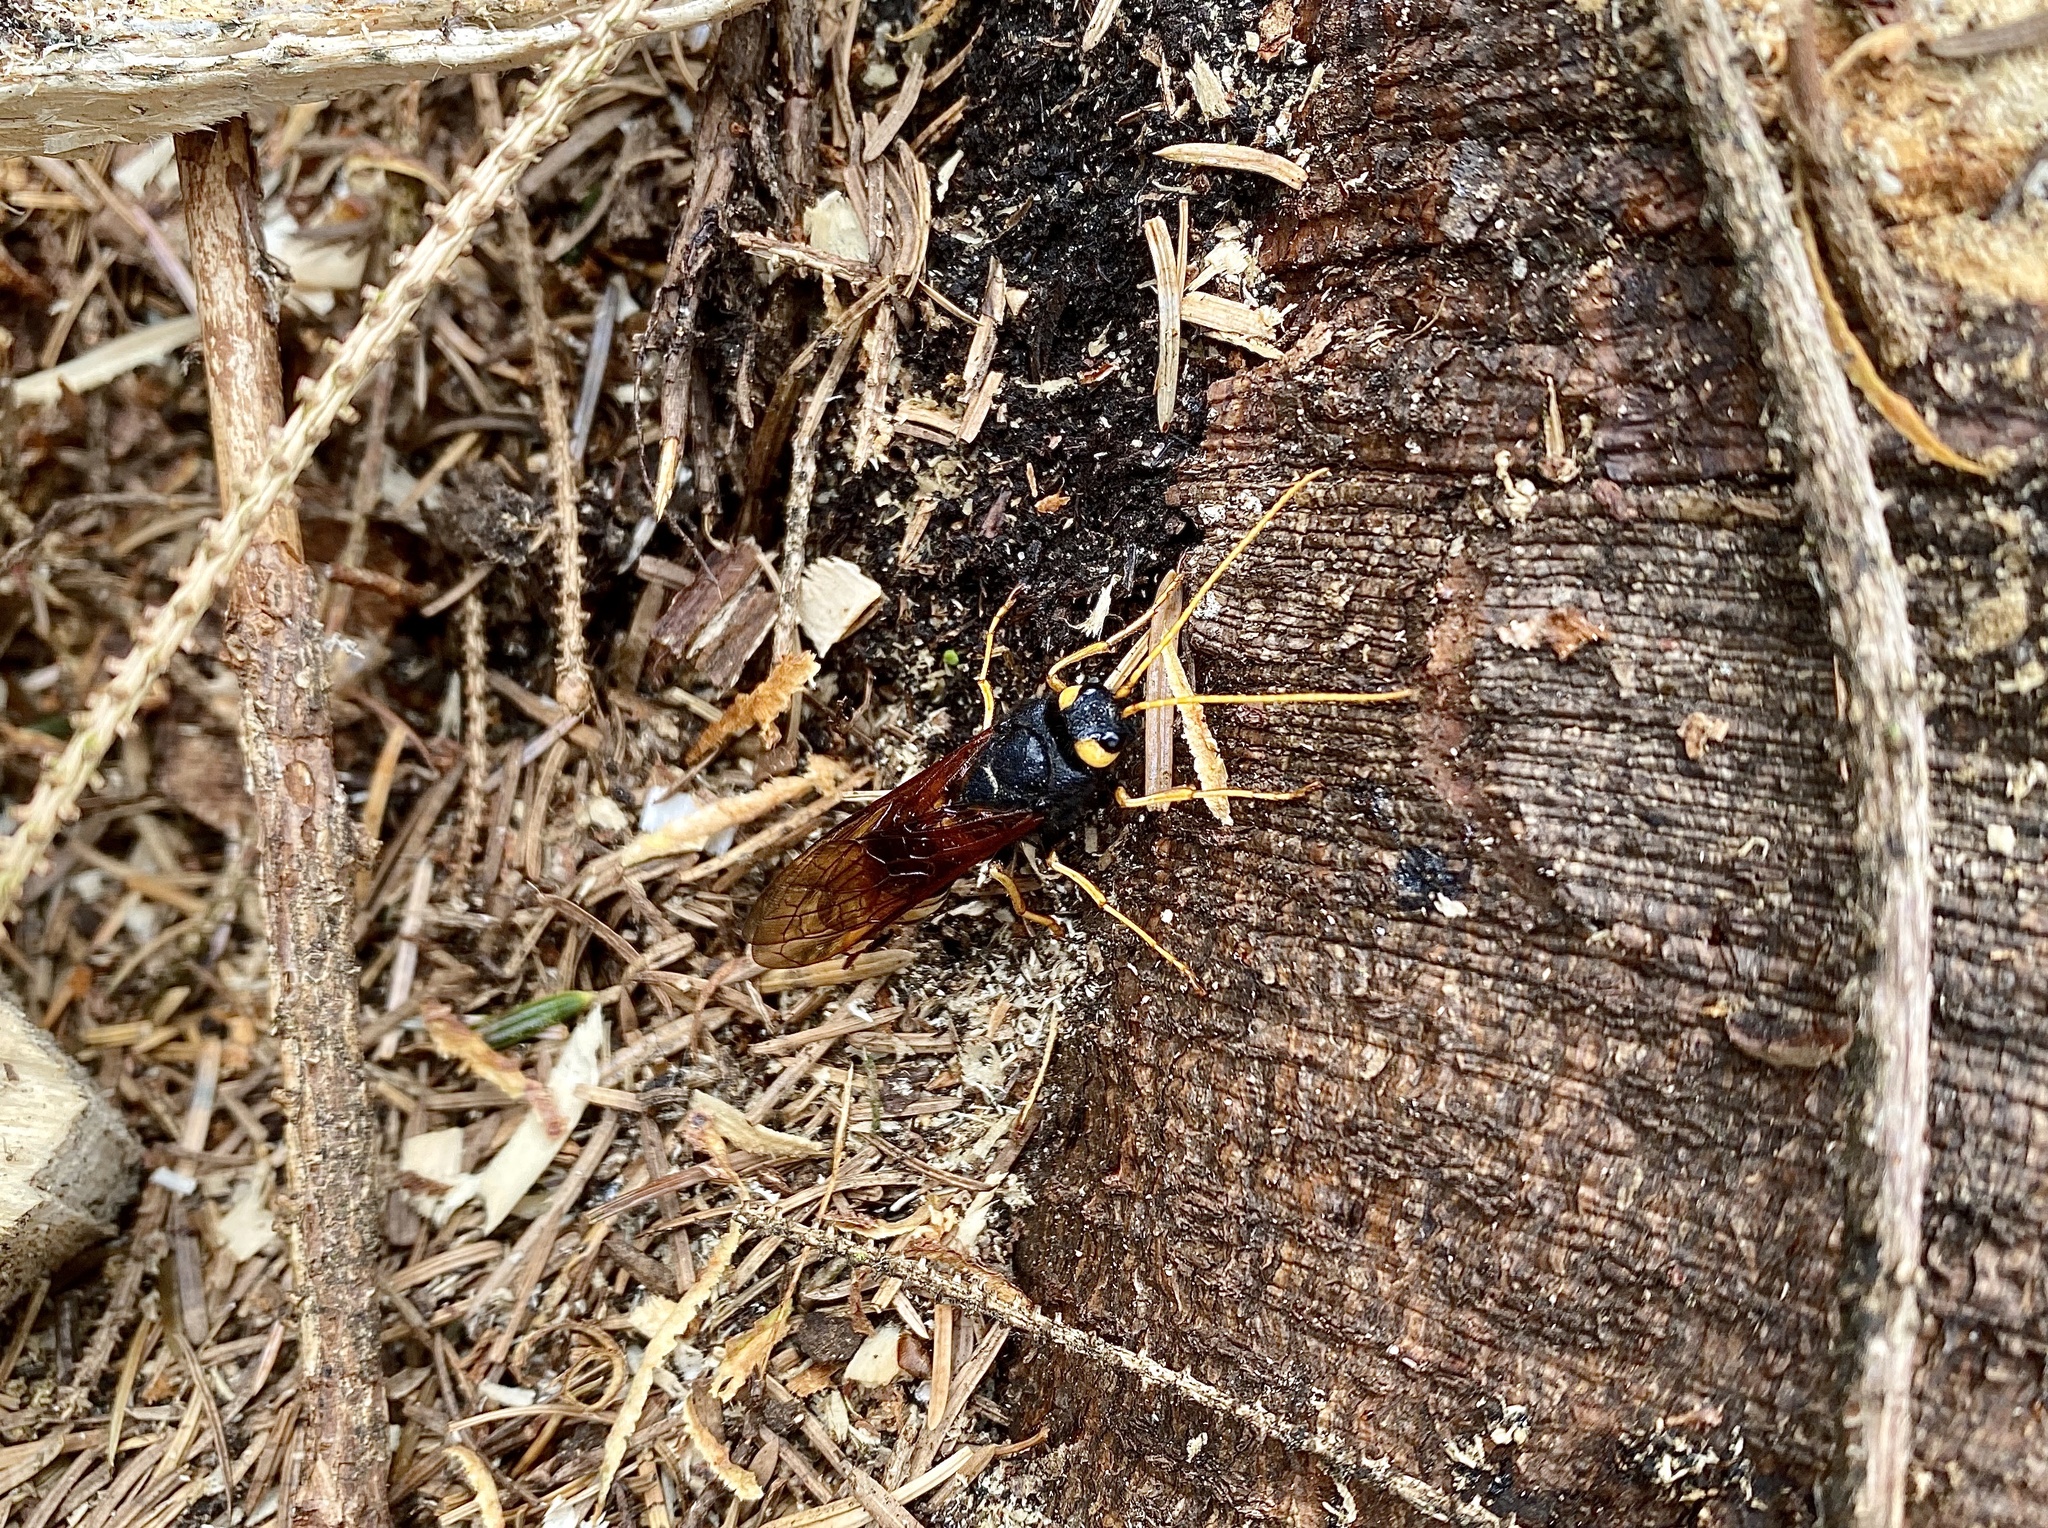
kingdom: Animalia
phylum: Arthropoda
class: Insecta
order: Hymenoptera
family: Siricidae
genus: Urocerus
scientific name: Urocerus gigas
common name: Giant woodwasp
